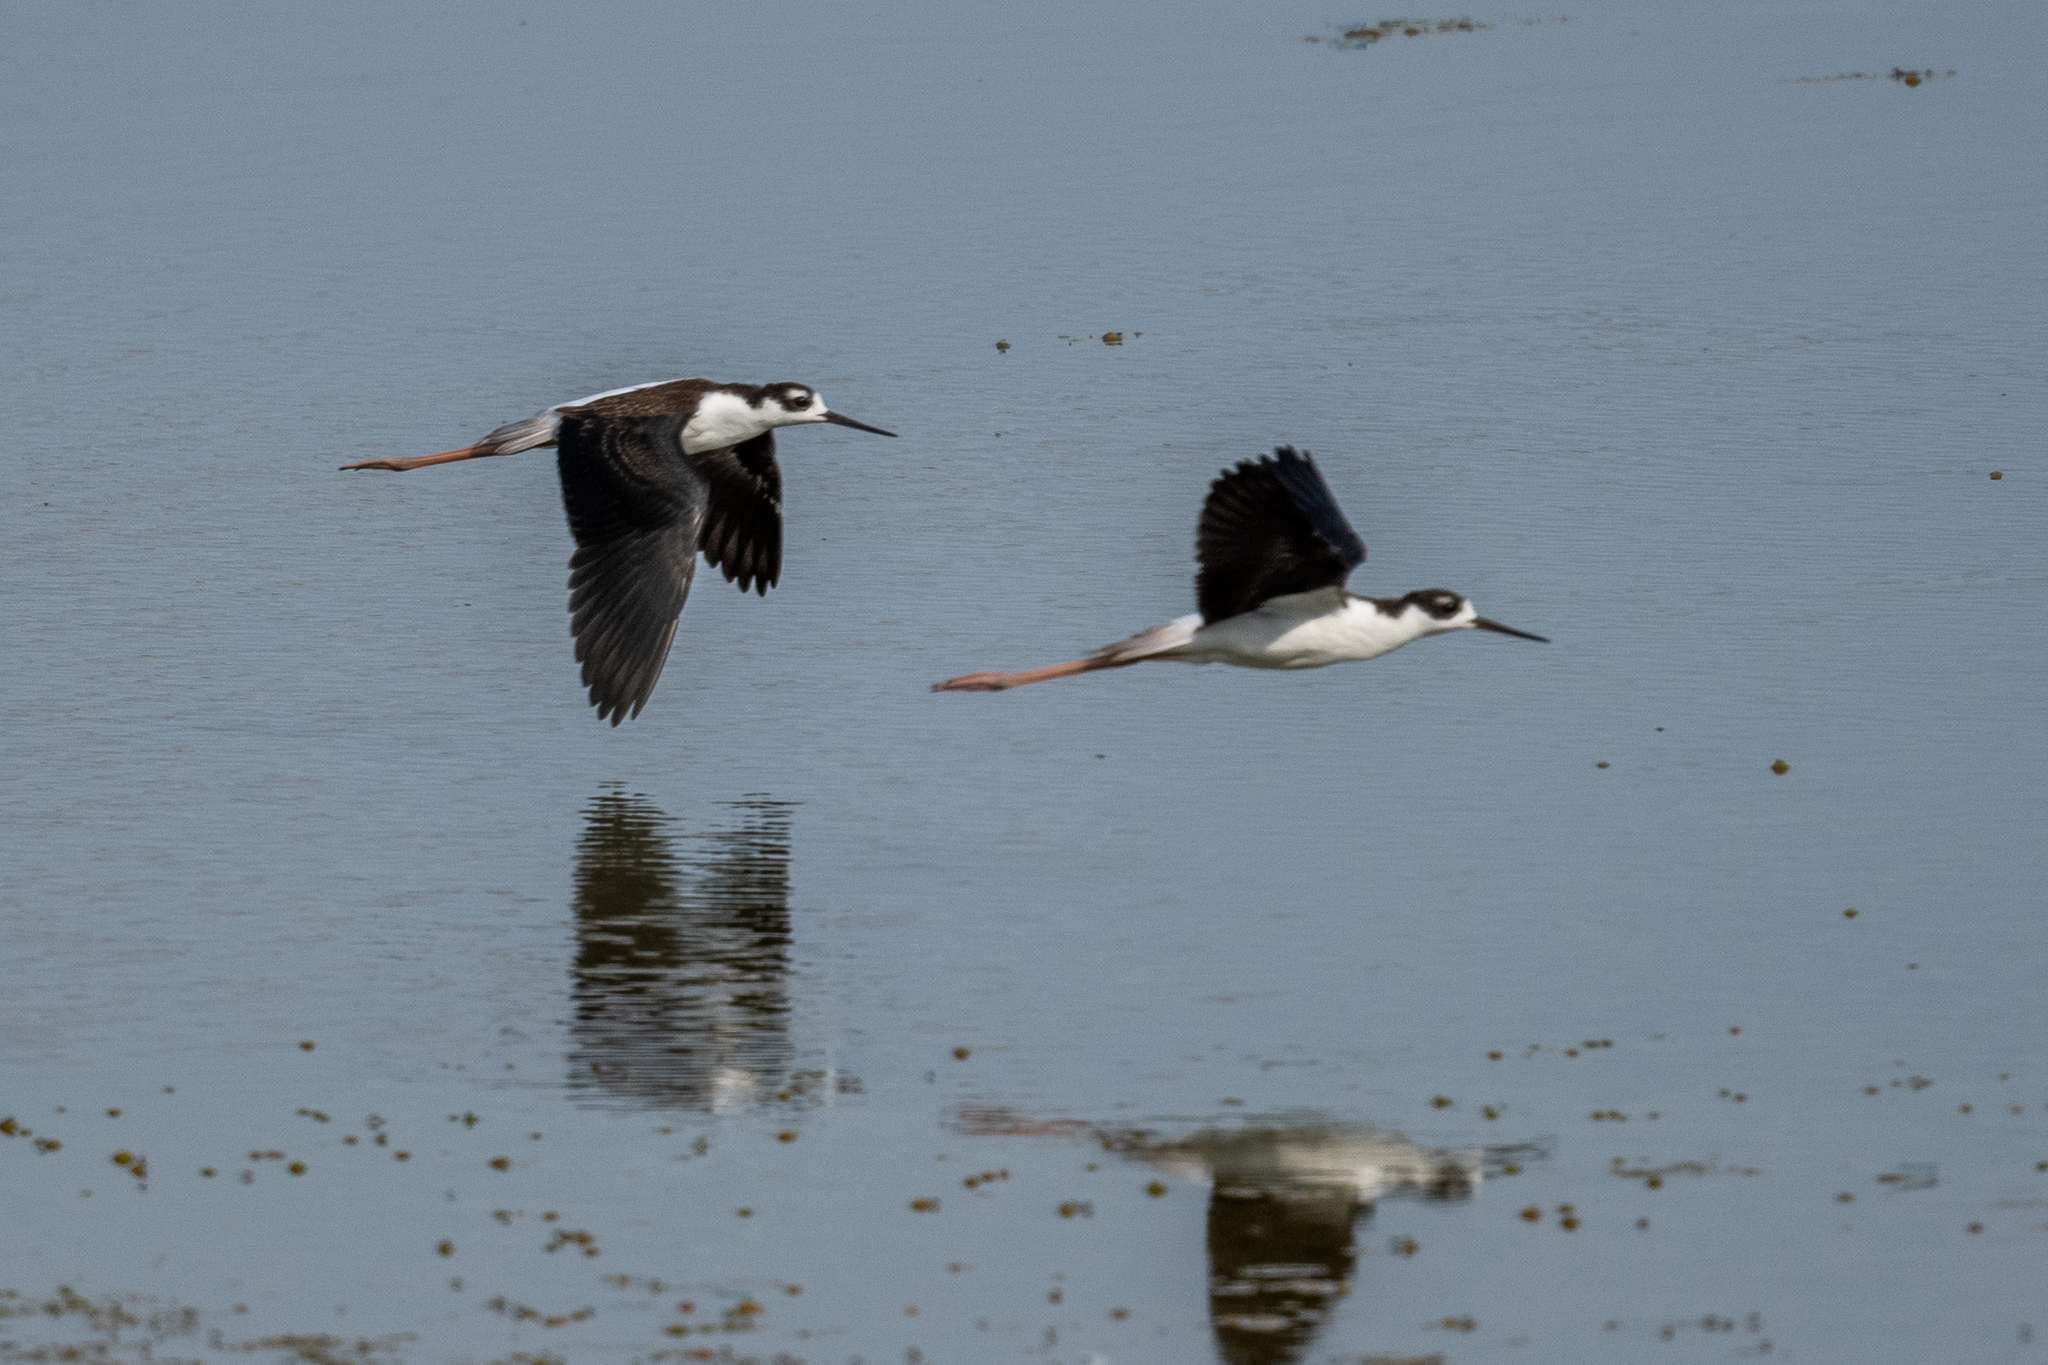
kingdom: Animalia
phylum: Chordata
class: Aves
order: Charadriiformes
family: Recurvirostridae
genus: Himantopus
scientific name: Himantopus mexicanus
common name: Black-necked stilt
